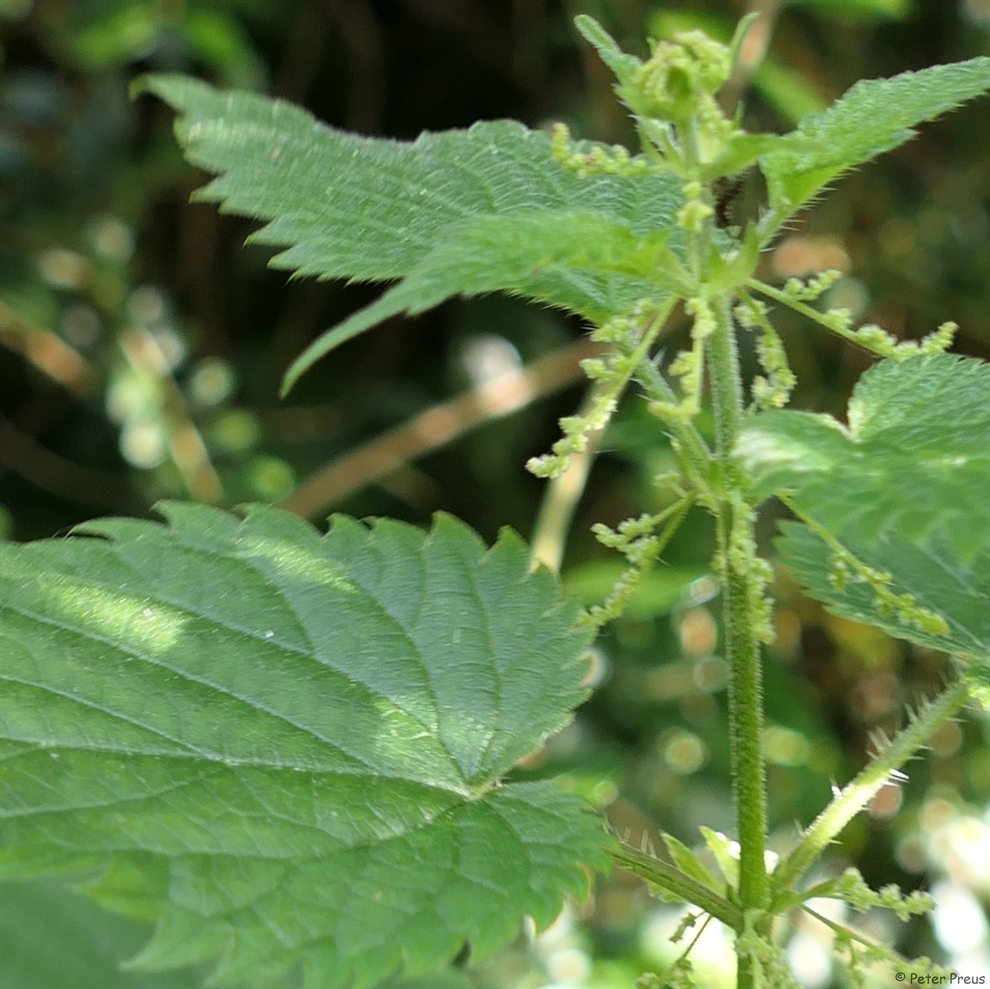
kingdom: Plantae
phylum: Tracheophyta
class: Magnoliopsida
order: Rosales
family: Urticaceae
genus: Urtica
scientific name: Urtica dioica
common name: Common nettle
